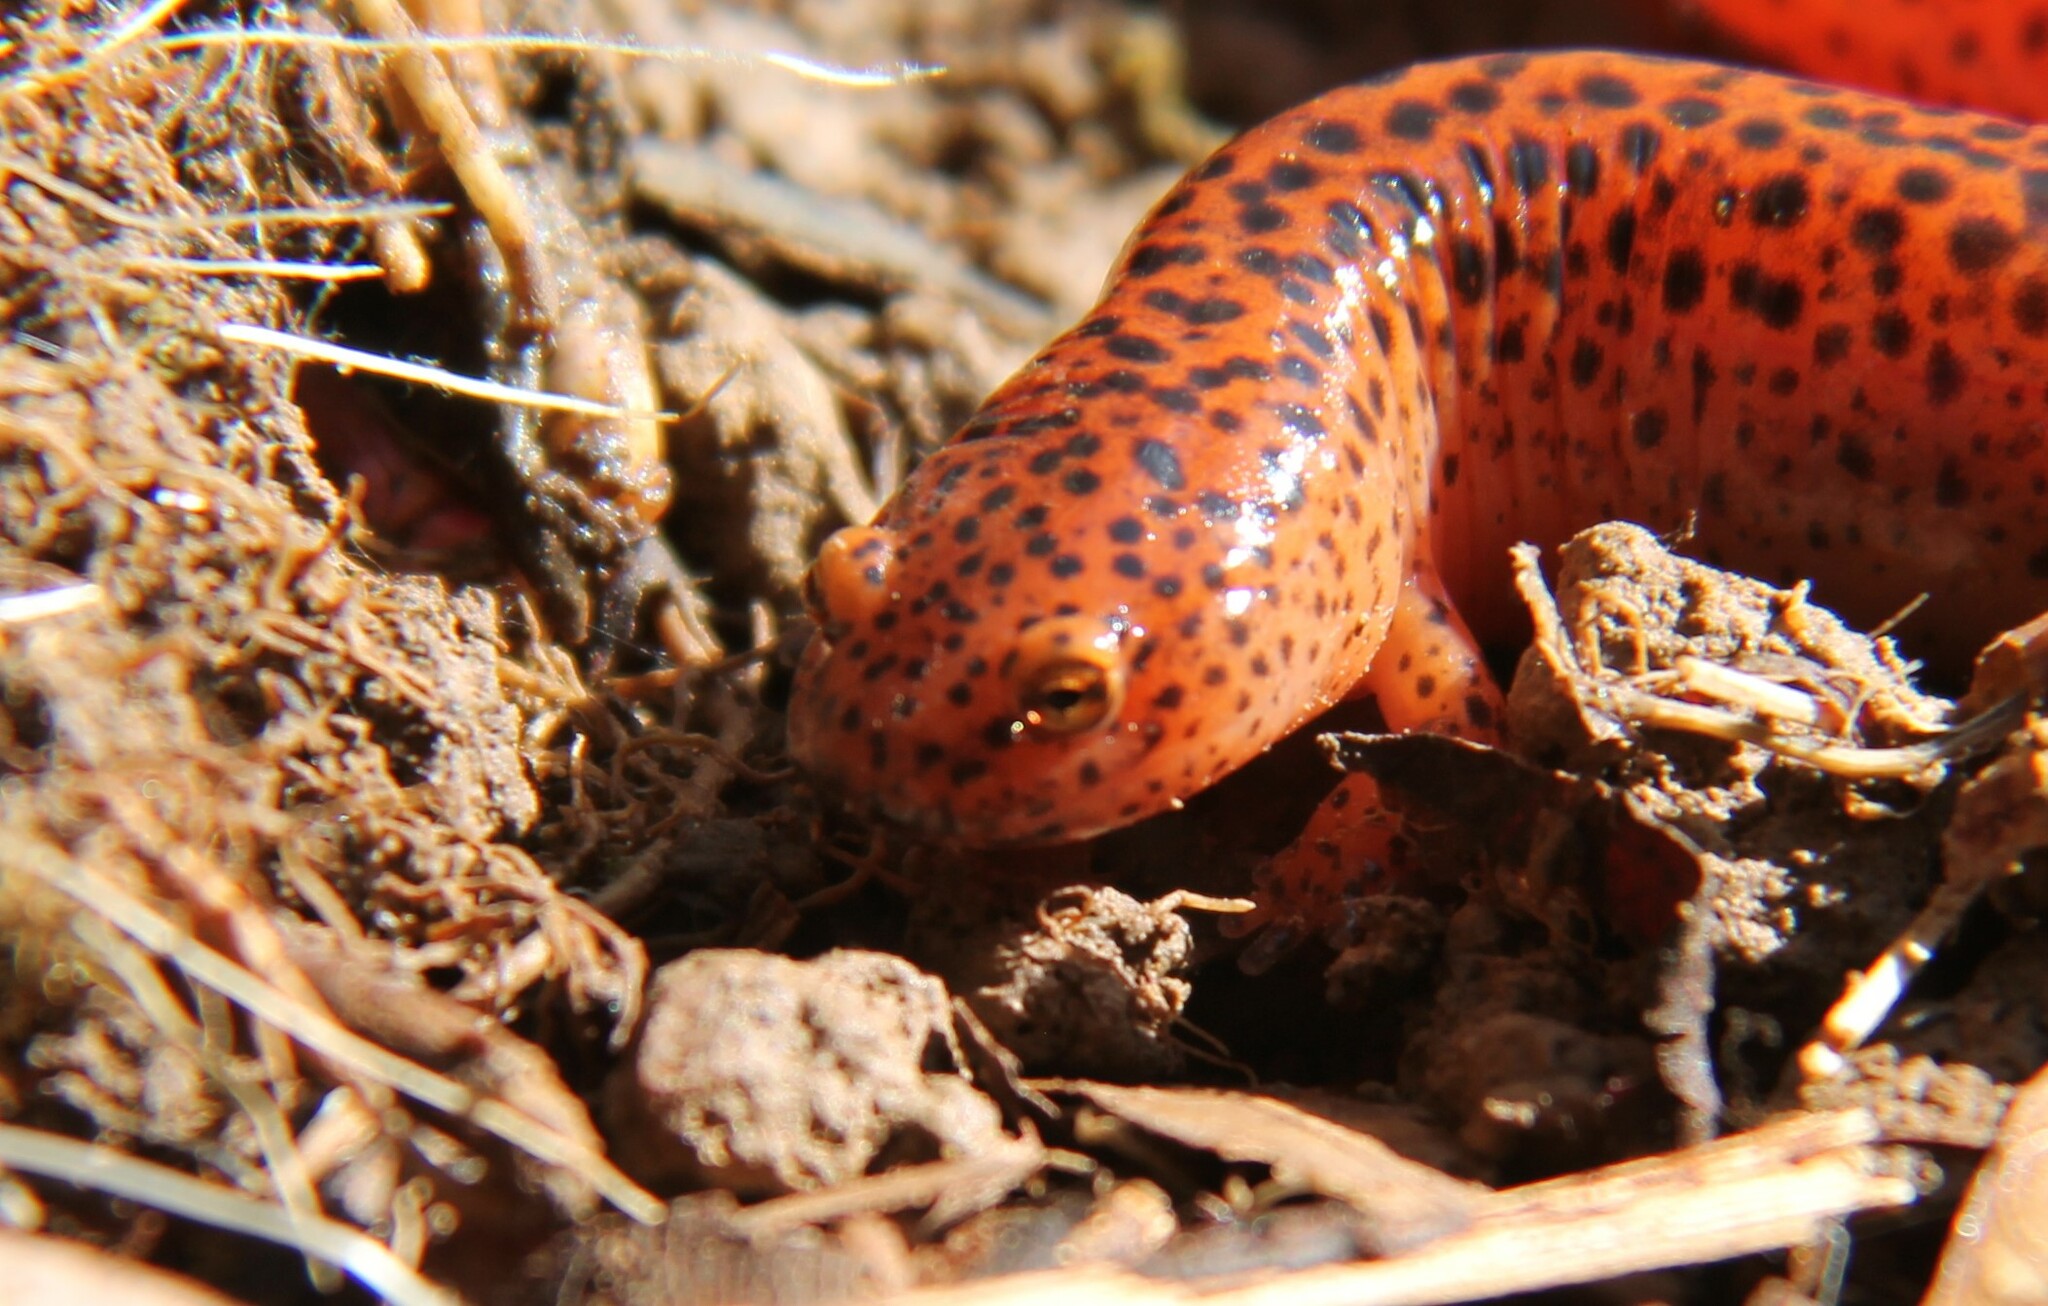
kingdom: Animalia
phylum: Chordata
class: Amphibia
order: Caudata
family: Plethodontidae
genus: Pseudotriton
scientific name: Pseudotriton ruber
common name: Red salamander
